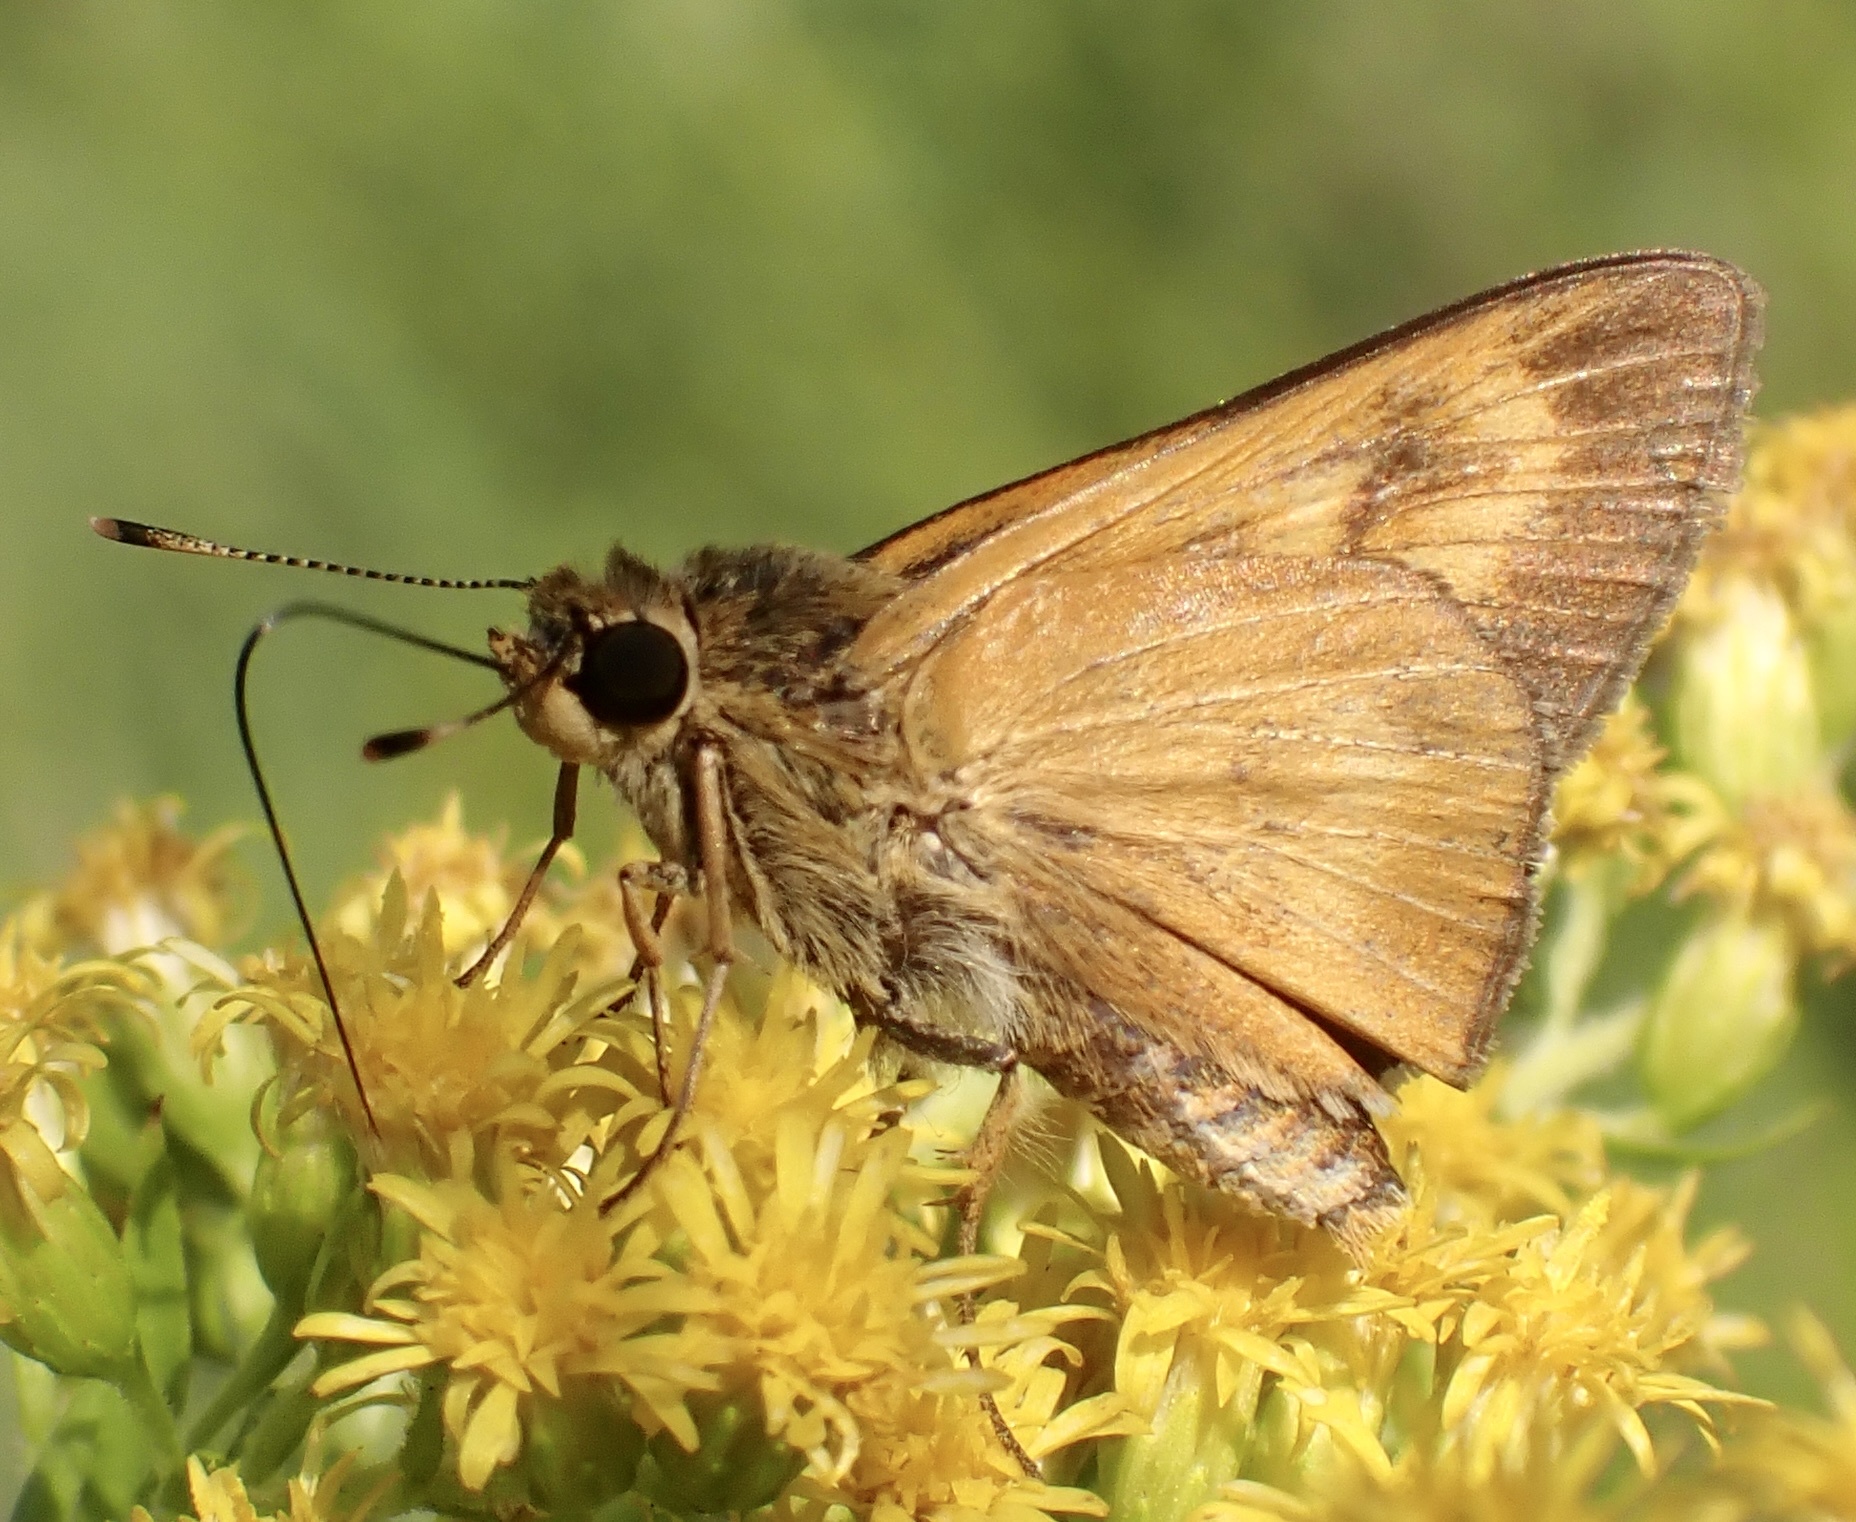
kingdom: Animalia
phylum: Arthropoda
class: Insecta
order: Lepidoptera
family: Hesperiidae
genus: Problema
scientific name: Problema byssus
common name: Byssus skipper
